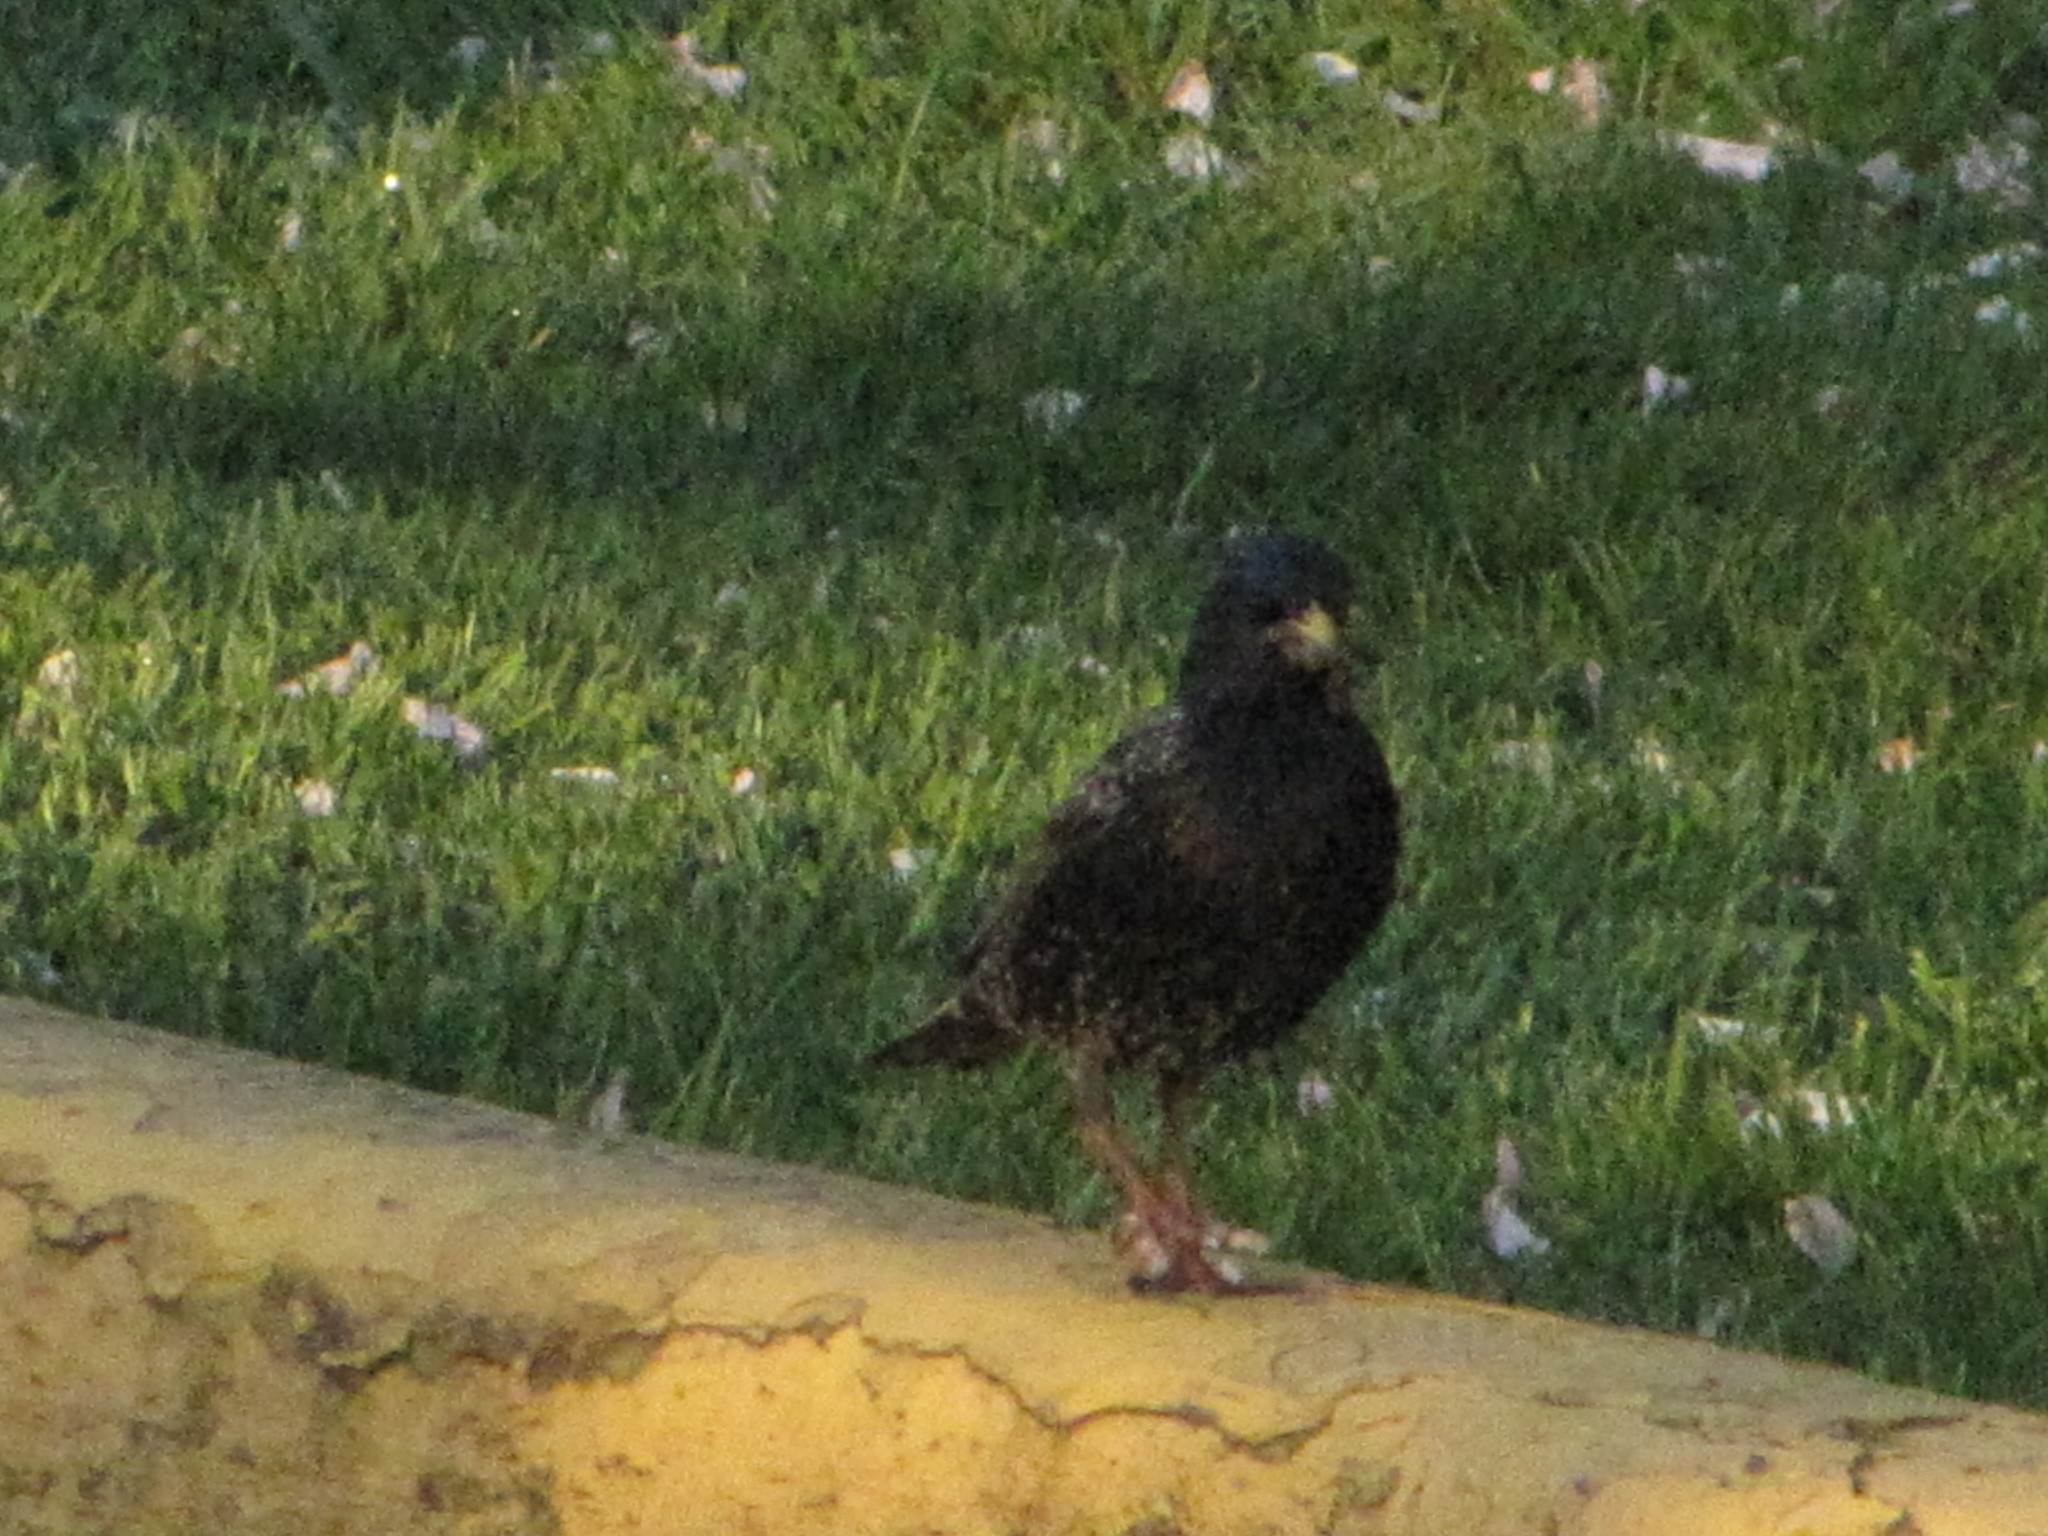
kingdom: Animalia
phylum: Chordata
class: Aves
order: Passeriformes
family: Sturnidae
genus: Sturnus
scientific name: Sturnus vulgaris
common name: Common starling
